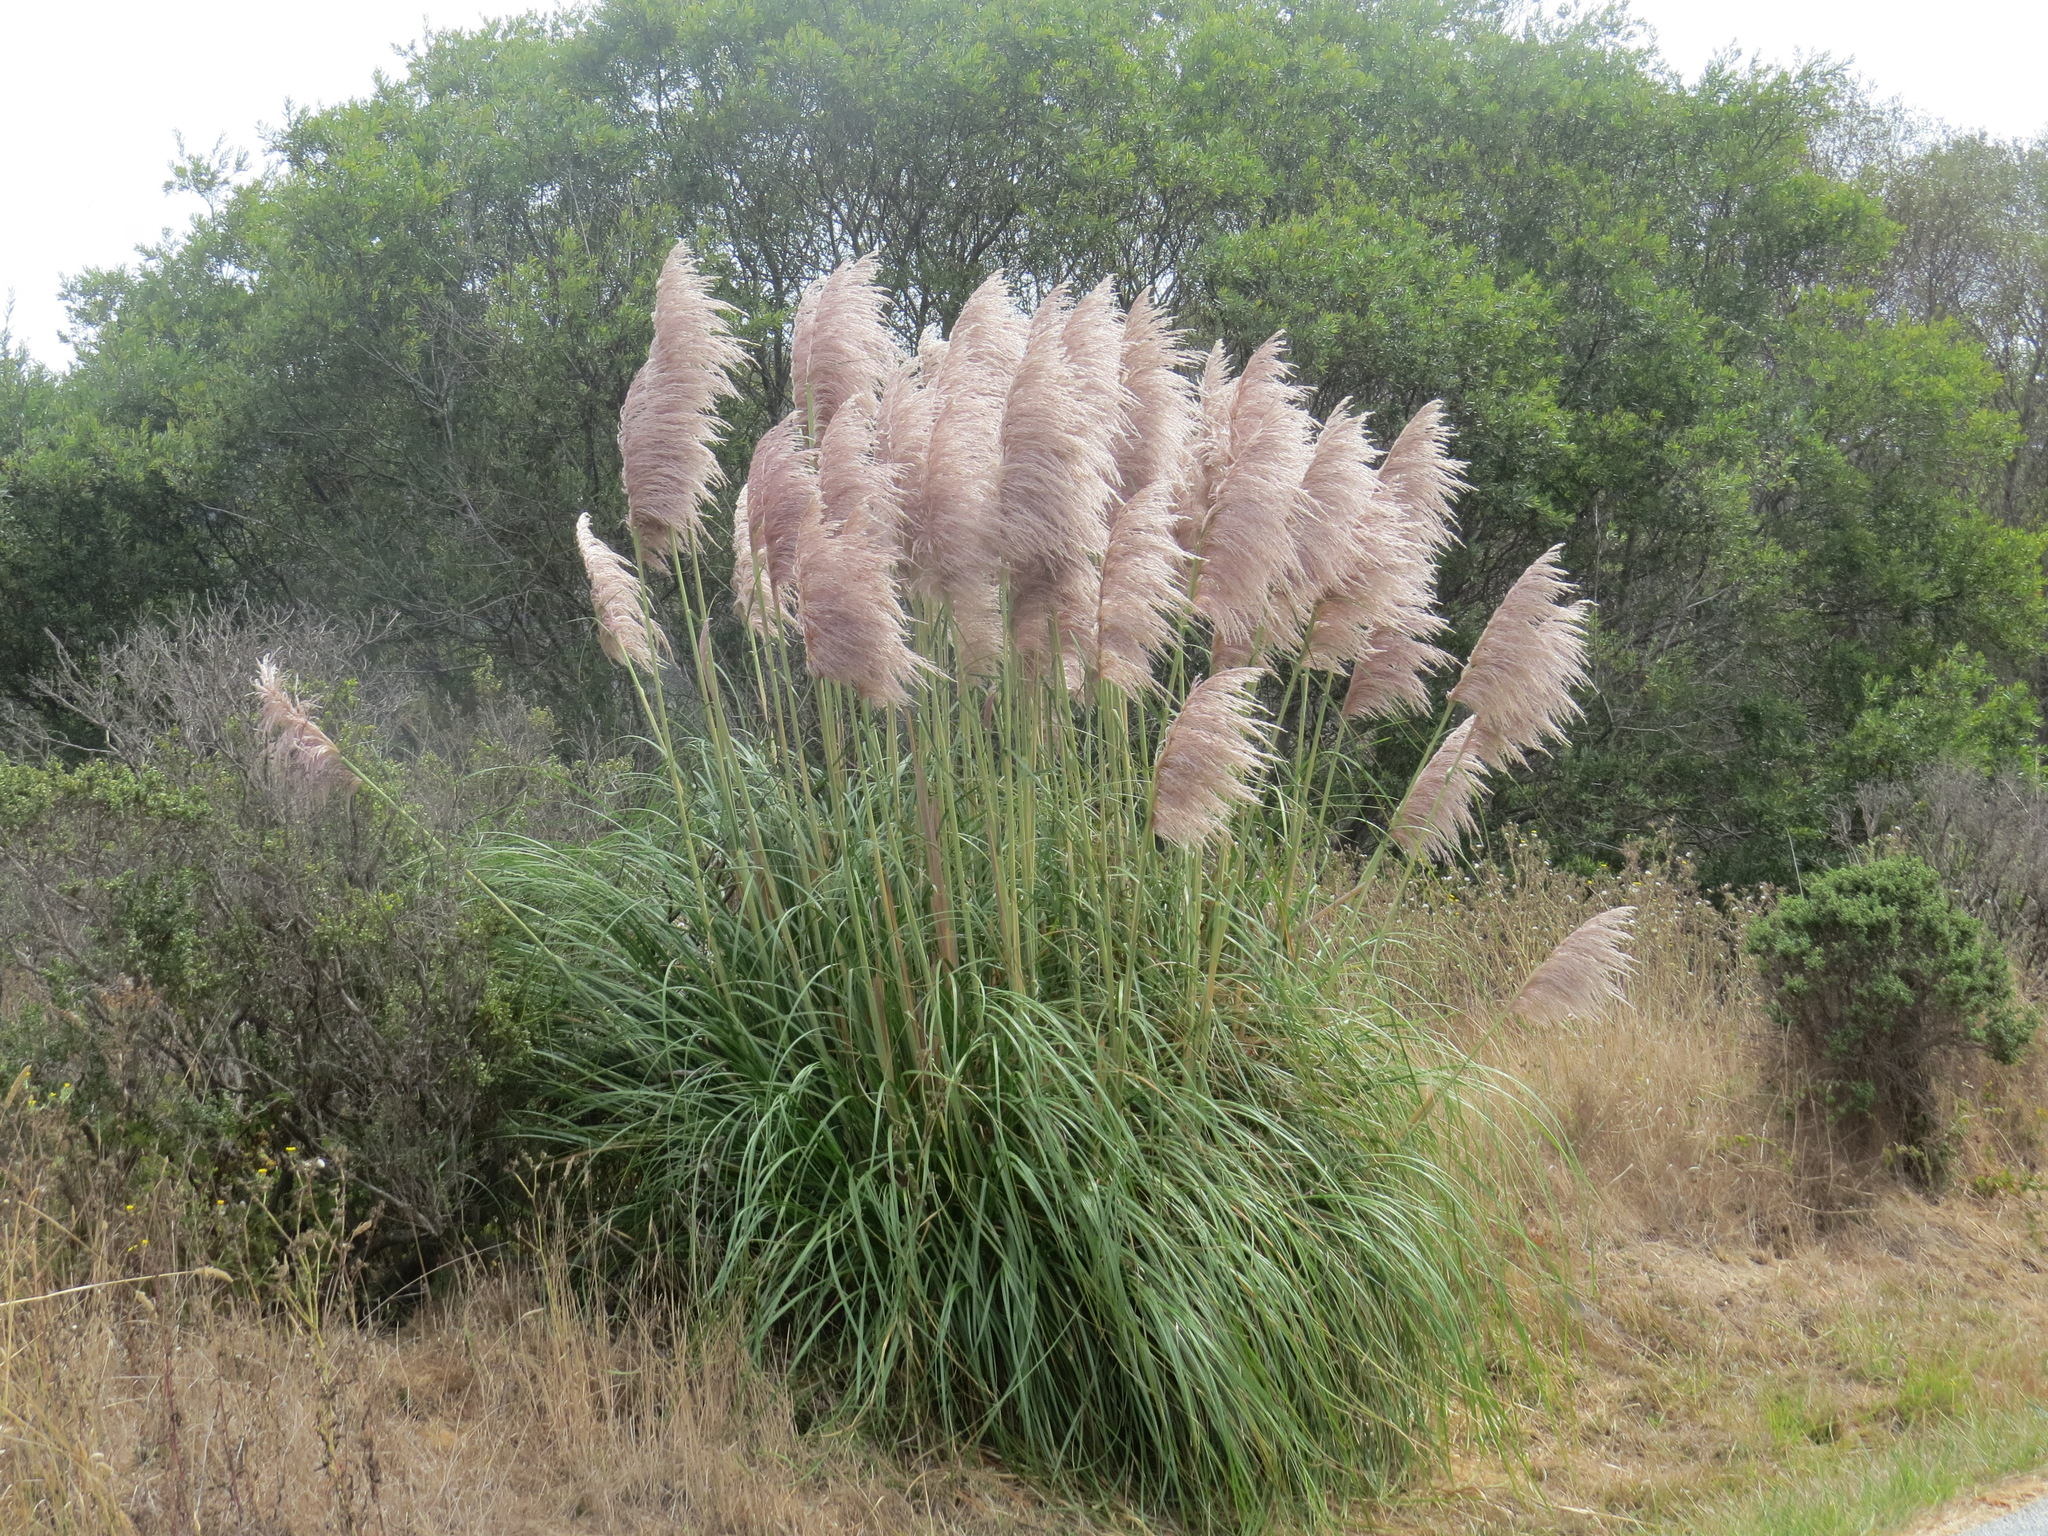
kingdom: Plantae
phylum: Tracheophyta
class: Liliopsida
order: Poales
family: Poaceae
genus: Cortaderia
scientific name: Cortaderia selloana
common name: Uruguayan pampas grass
